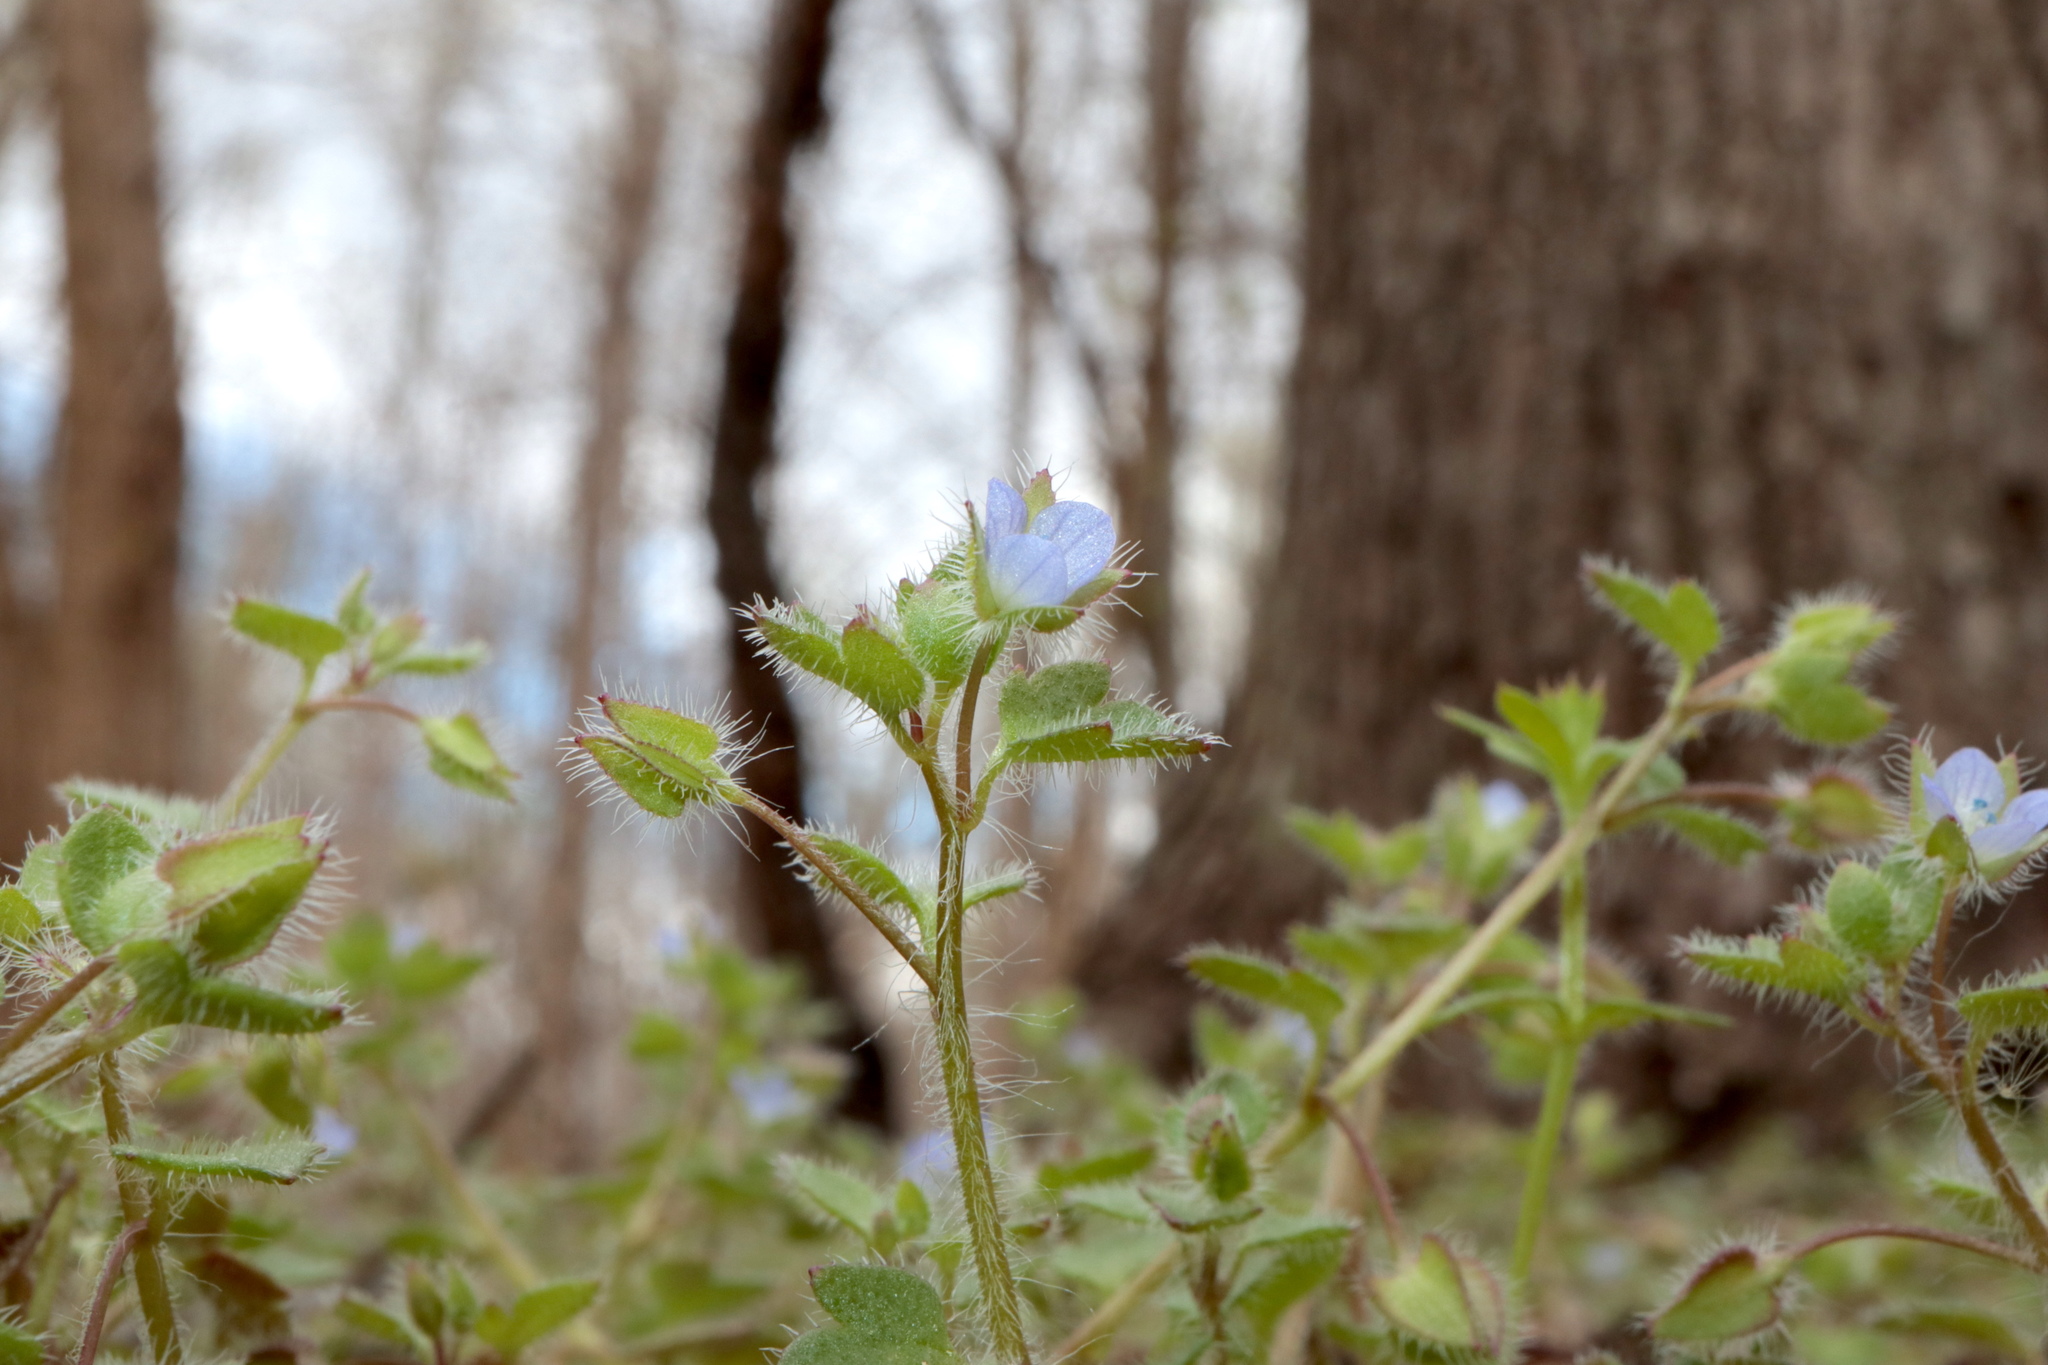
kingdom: Plantae
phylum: Tracheophyta
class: Magnoliopsida
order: Lamiales
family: Plantaginaceae
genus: Veronica
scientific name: Veronica hederifolia
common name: Ivy-leaved speedwell
